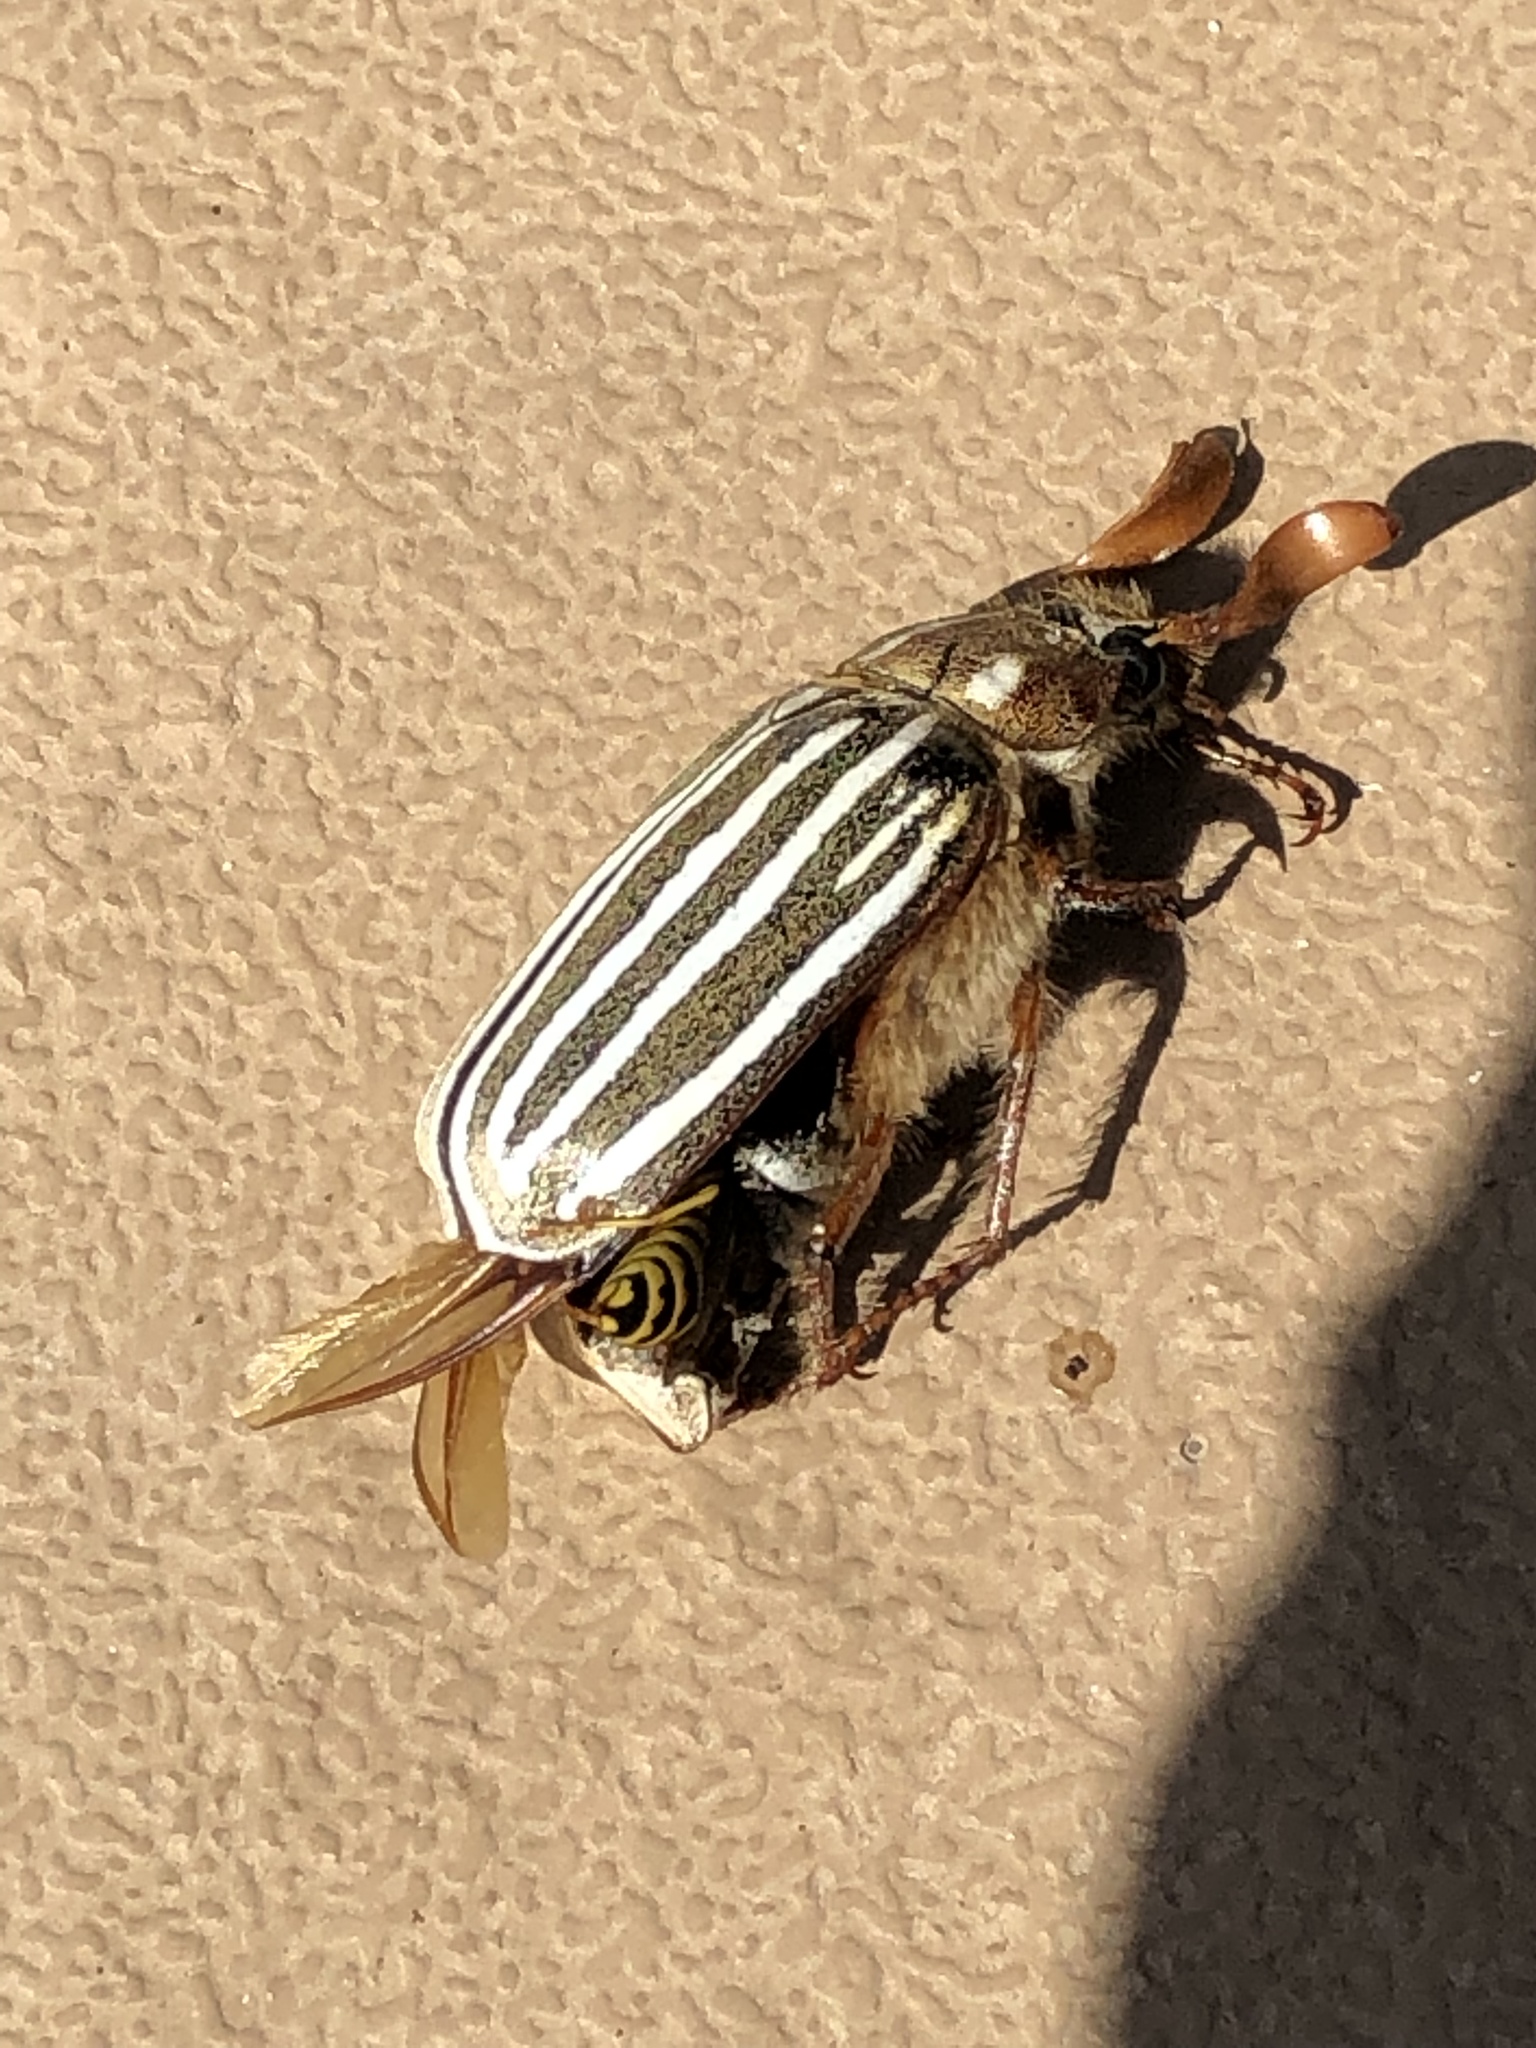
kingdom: Animalia
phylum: Arthropoda
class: Insecta
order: Coleoptera
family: Scarabaeidae
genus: Polyphylla
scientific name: Polyphylla decemlineata
